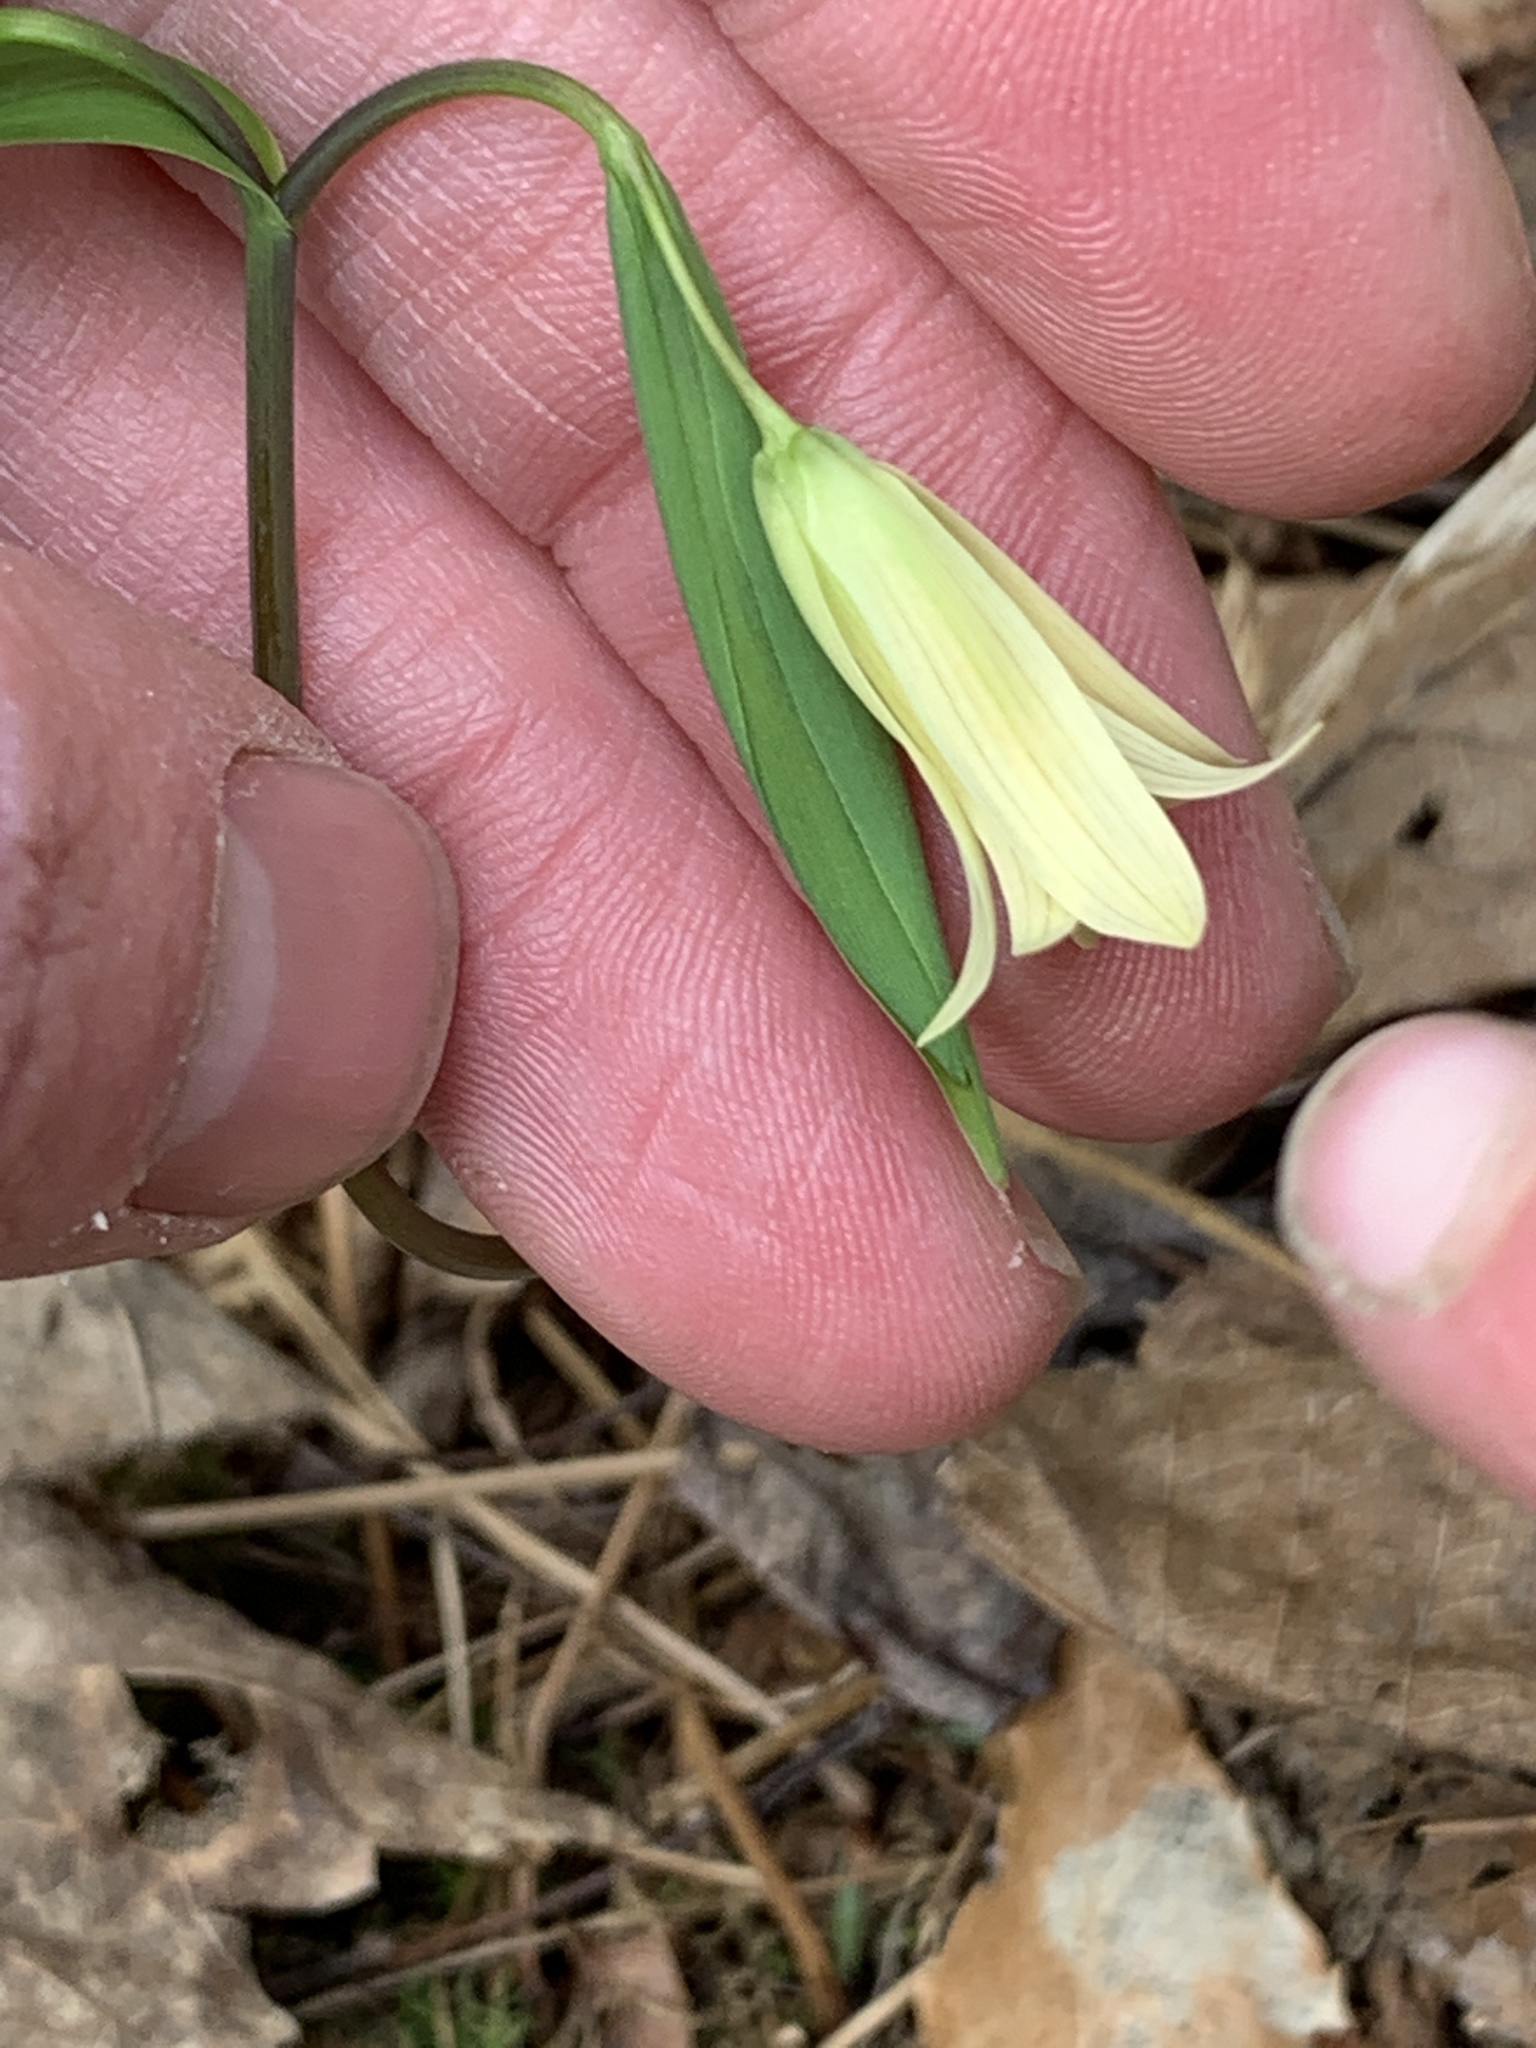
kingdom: Plantae
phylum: Tracheophyta
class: Liliopsida
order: Liliales
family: Colchicaceae
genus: Uvularia
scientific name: Uvularia sessilifolia
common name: Straw-lily
